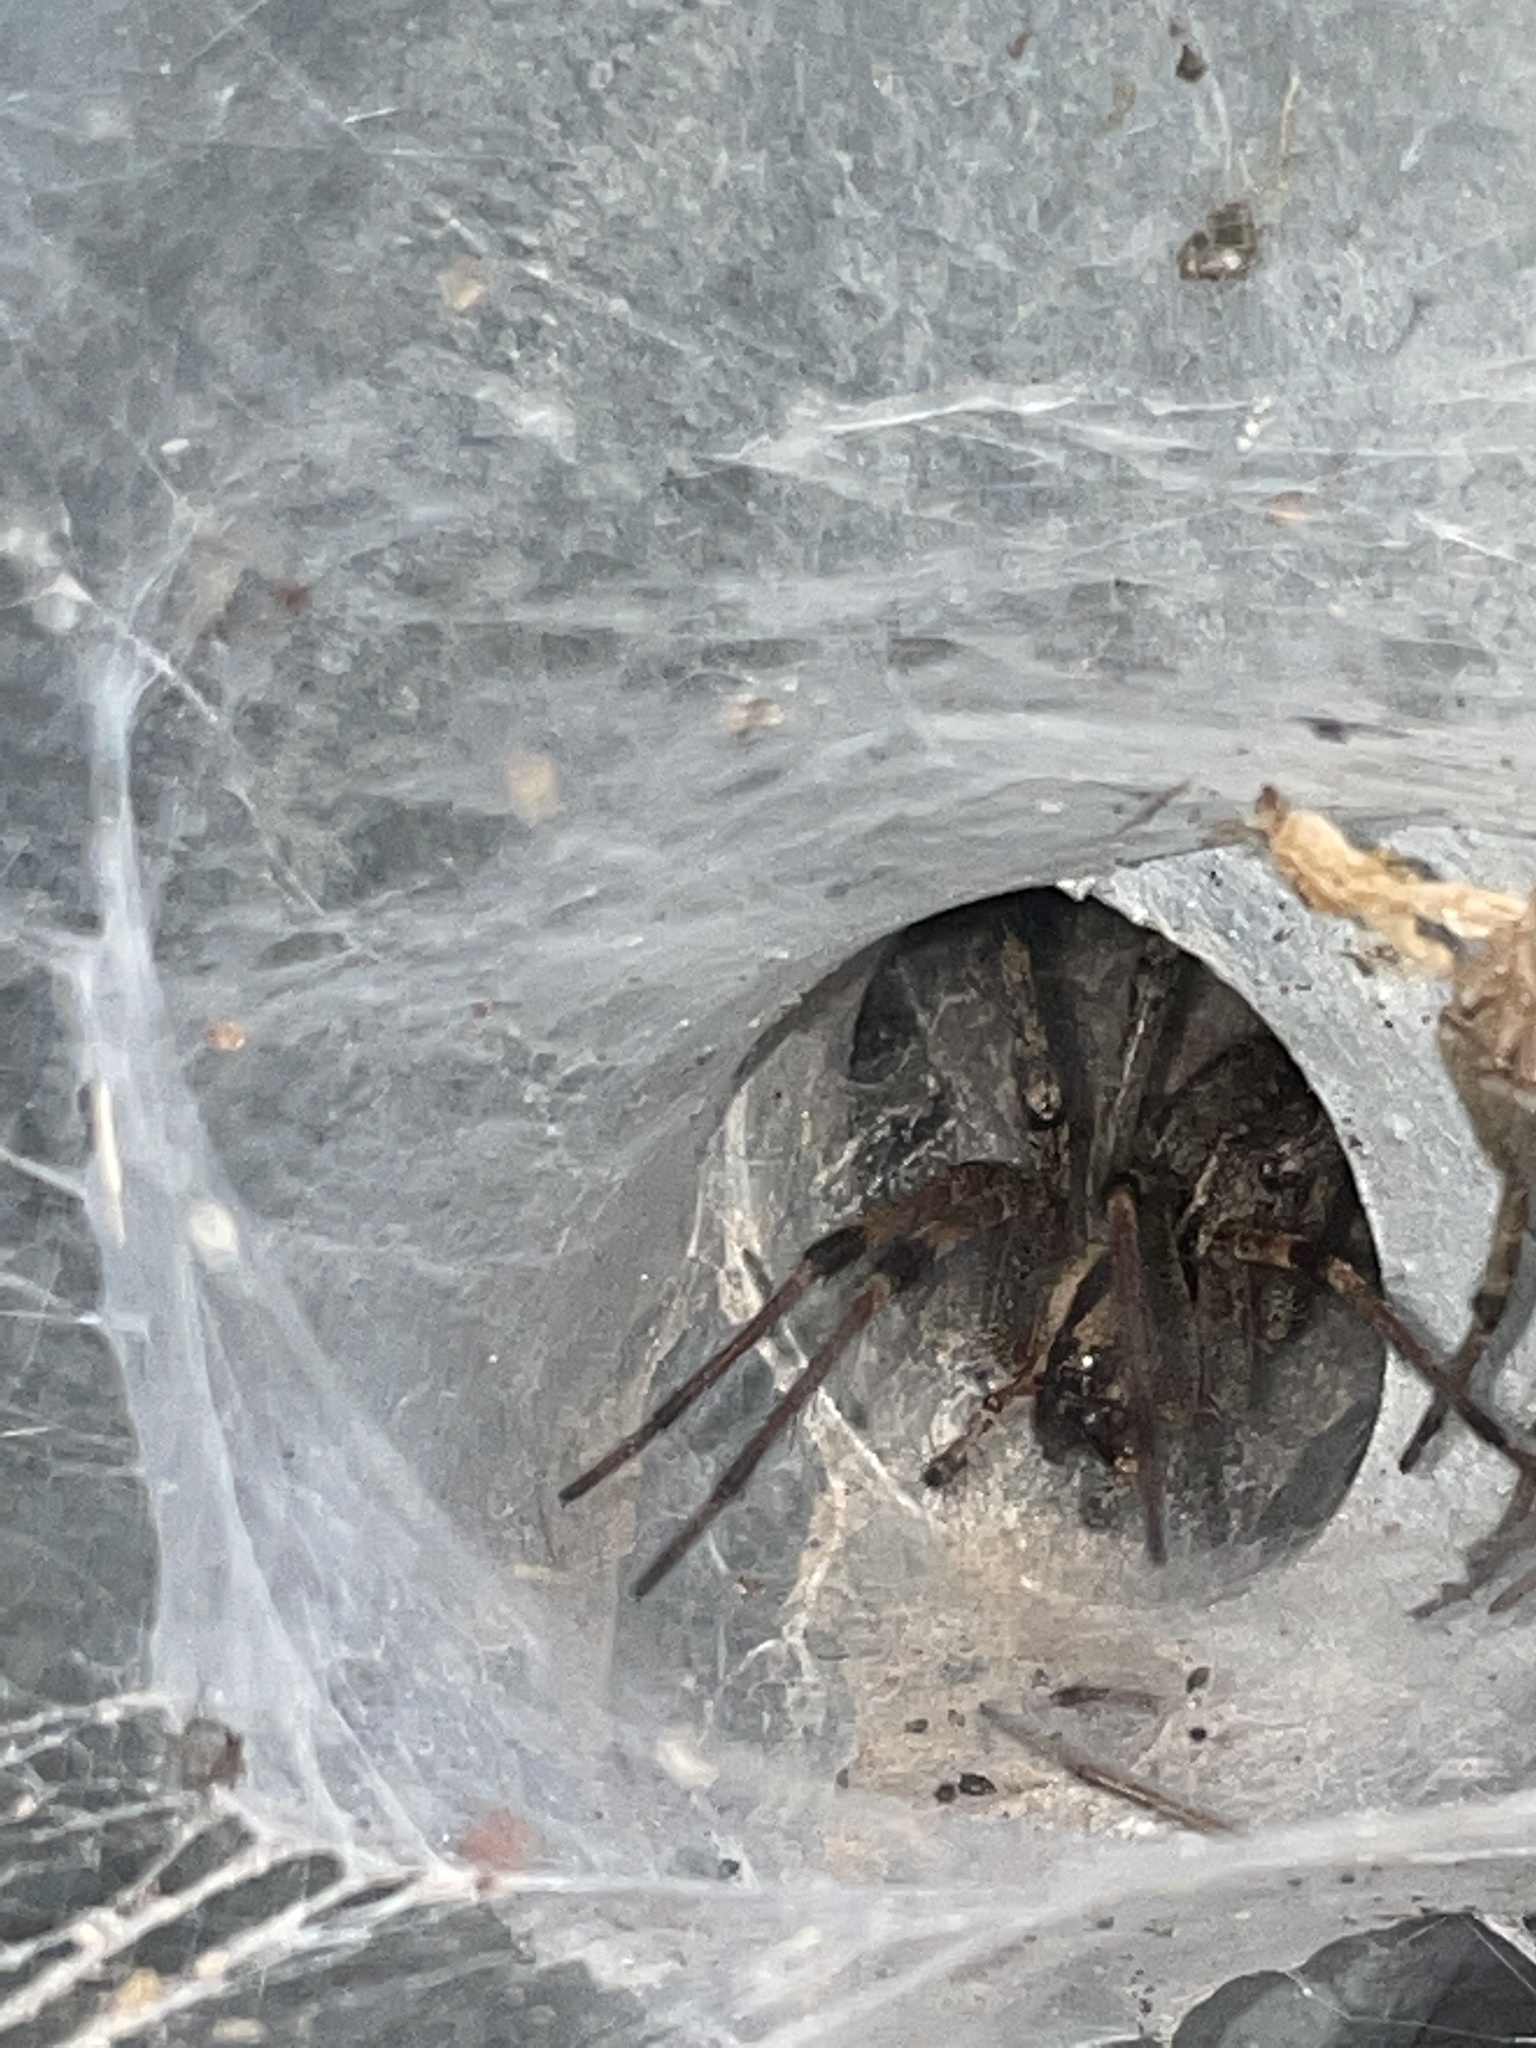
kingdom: Animalia
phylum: Arthropoda
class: Arachnida
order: Araneae
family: Agelenidae
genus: Agelenopsis
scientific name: Agelenopsis
